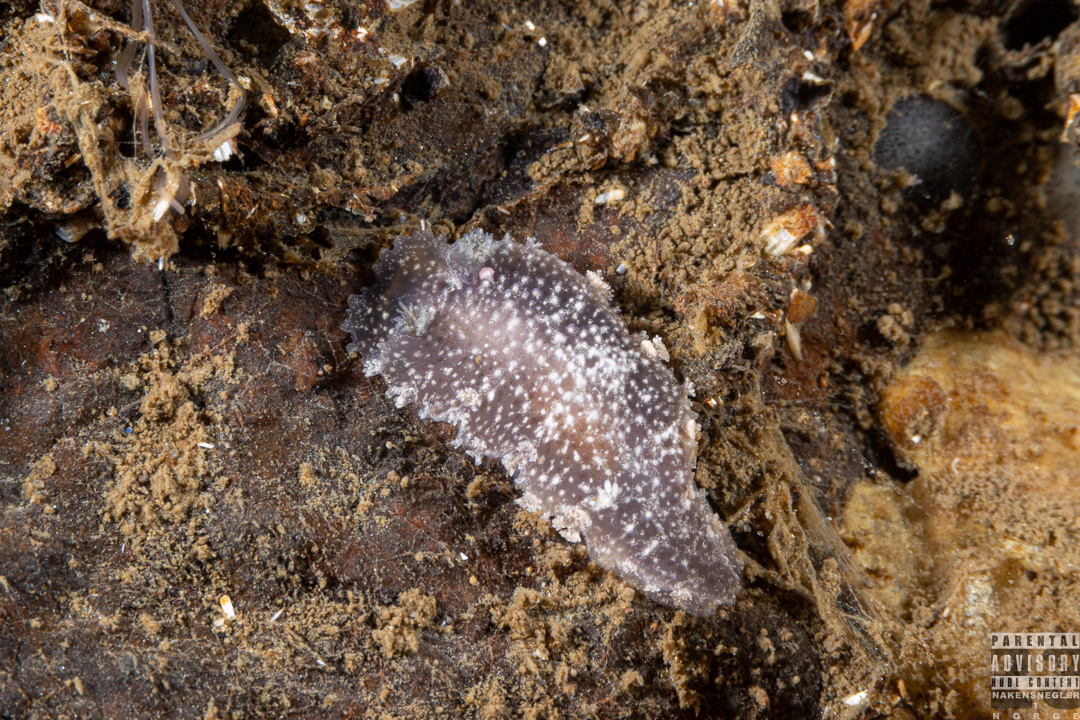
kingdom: Animalia
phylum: Mollusca
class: Gastropoda
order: Nudibranchia
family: Tritoniidae
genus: Tritonia
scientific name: Tritonia hombergii
